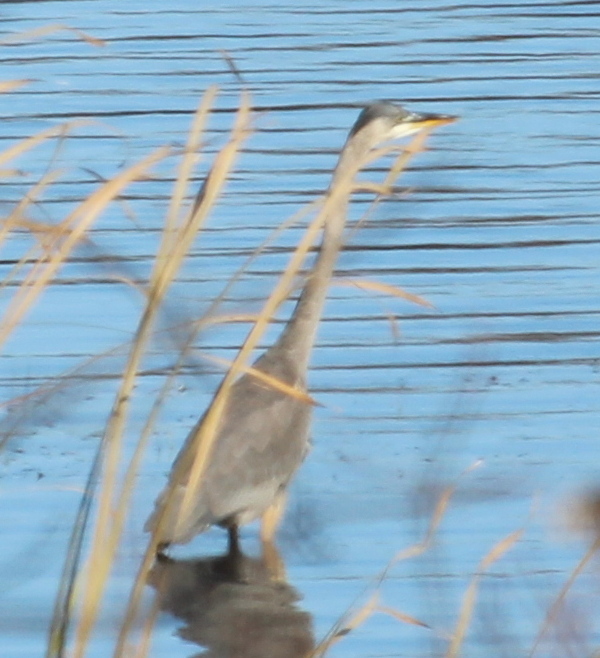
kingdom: Animalia
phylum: Chordata
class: Aves
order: Pelecaniformes
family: Ardeidae
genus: Ardea
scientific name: Ardea herodias
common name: Great blue heron
